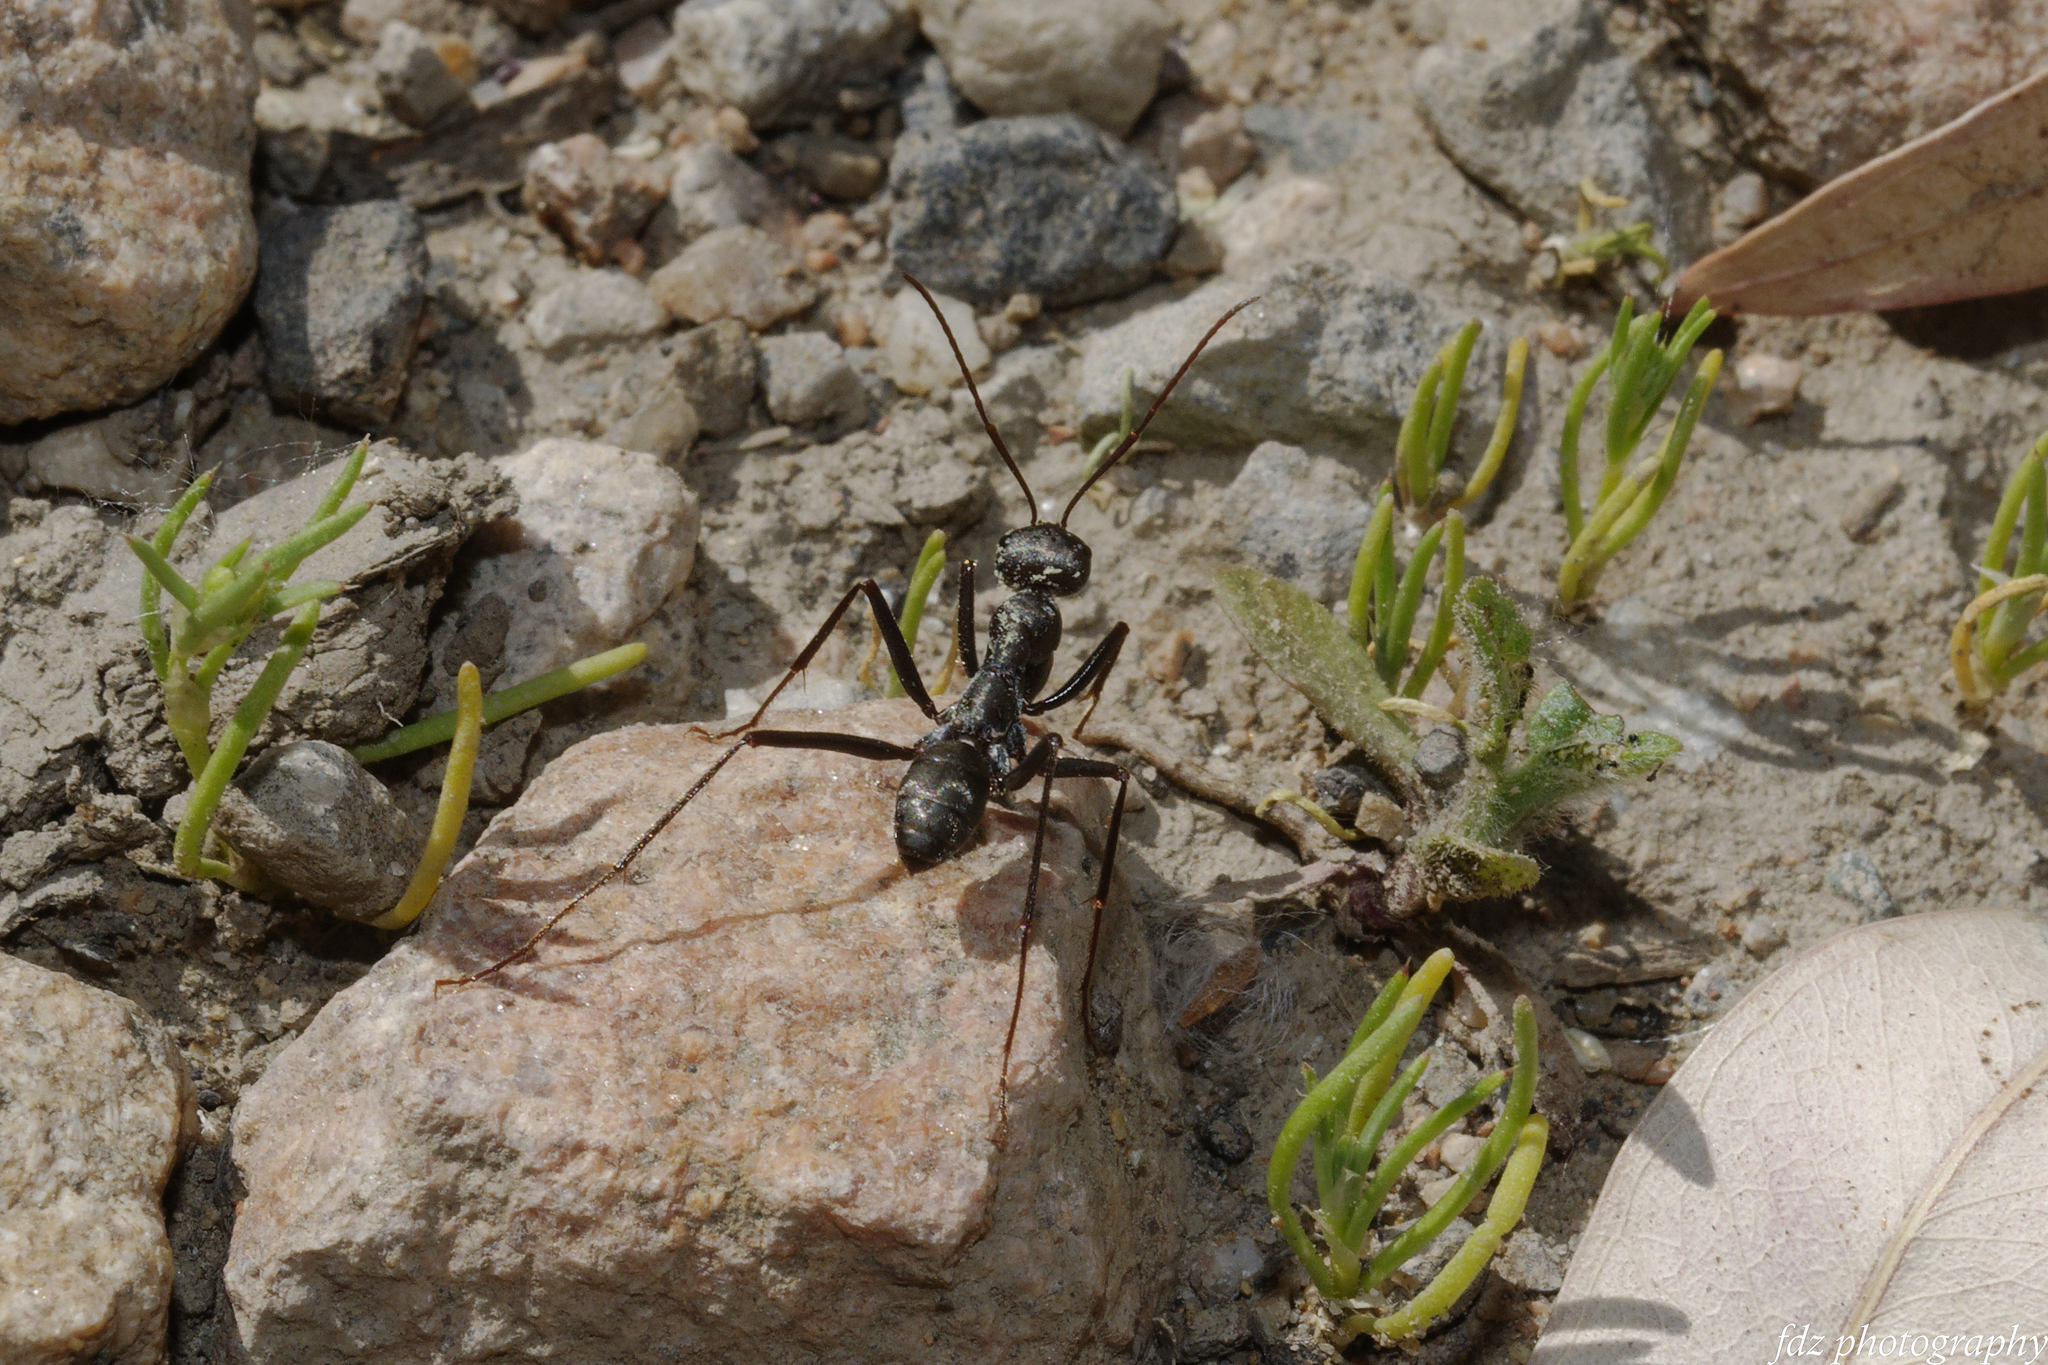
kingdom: Animalia
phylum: Arthropoda
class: Insecta
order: Hymenoptera
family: Formicidae
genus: Cataglyphis
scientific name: Cataglyphis hispanicus
